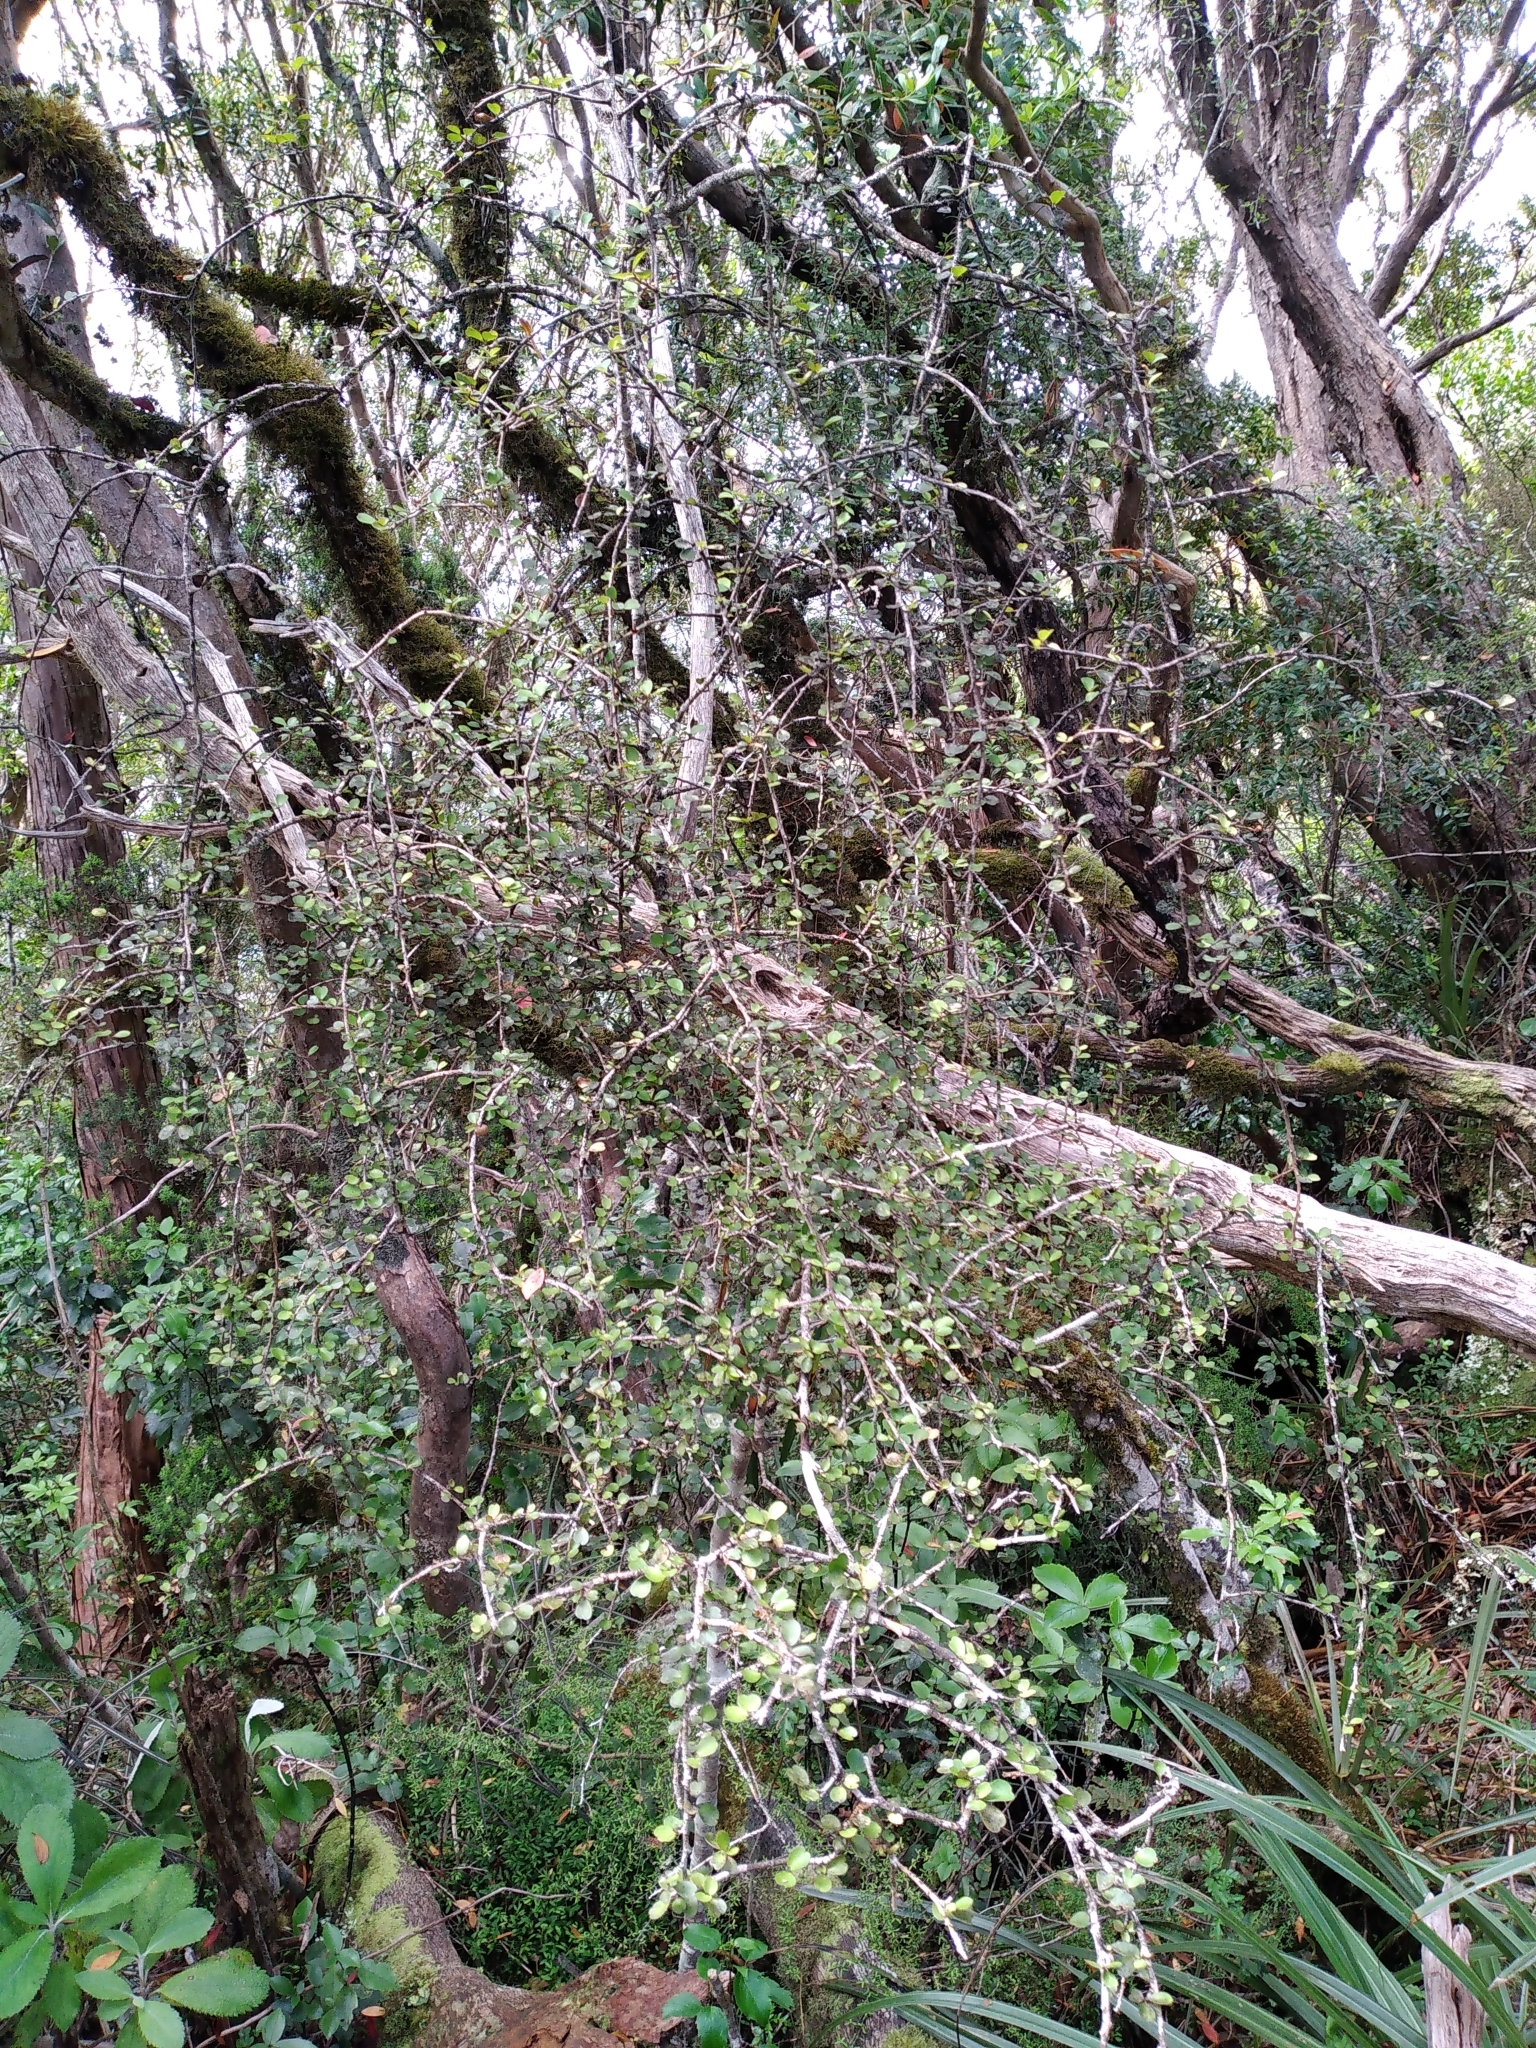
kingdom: Plantae
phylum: Tracheophyta
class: Magnoliopsida
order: Ericales
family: Primulaceae
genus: Myrsine
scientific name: Myrsine divaricata
